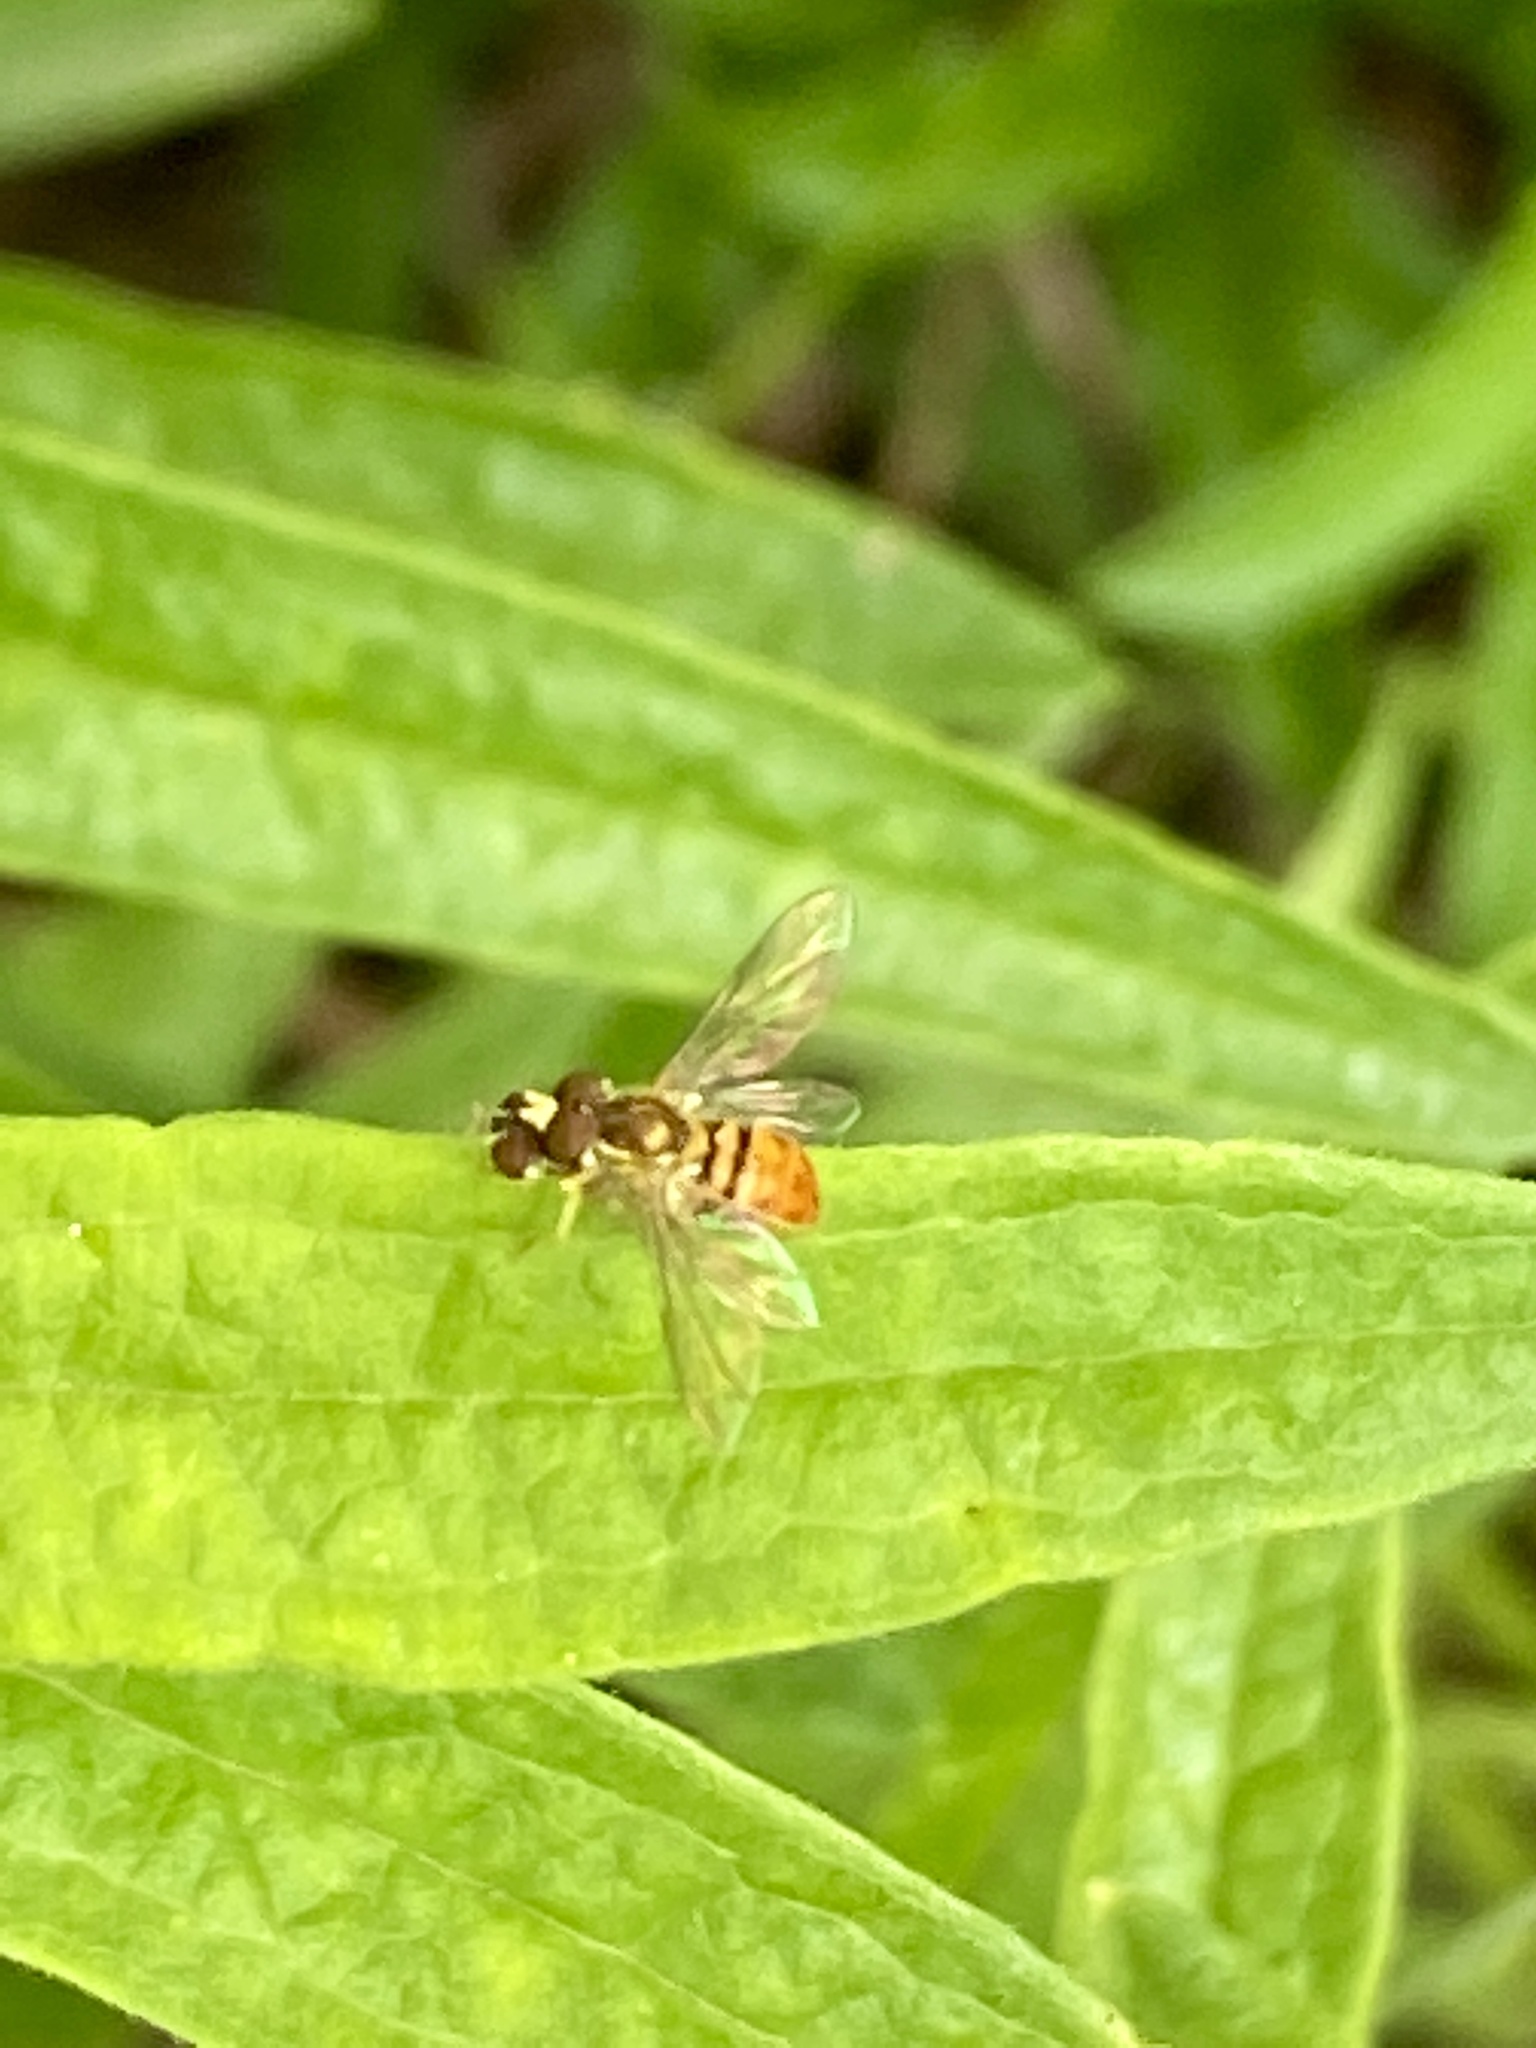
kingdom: Animalia
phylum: Arthropoda
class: Insecta
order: Diptera
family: Syrphidae
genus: Toxomerus
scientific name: Toxomerus marginatus
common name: Syrphid fly
